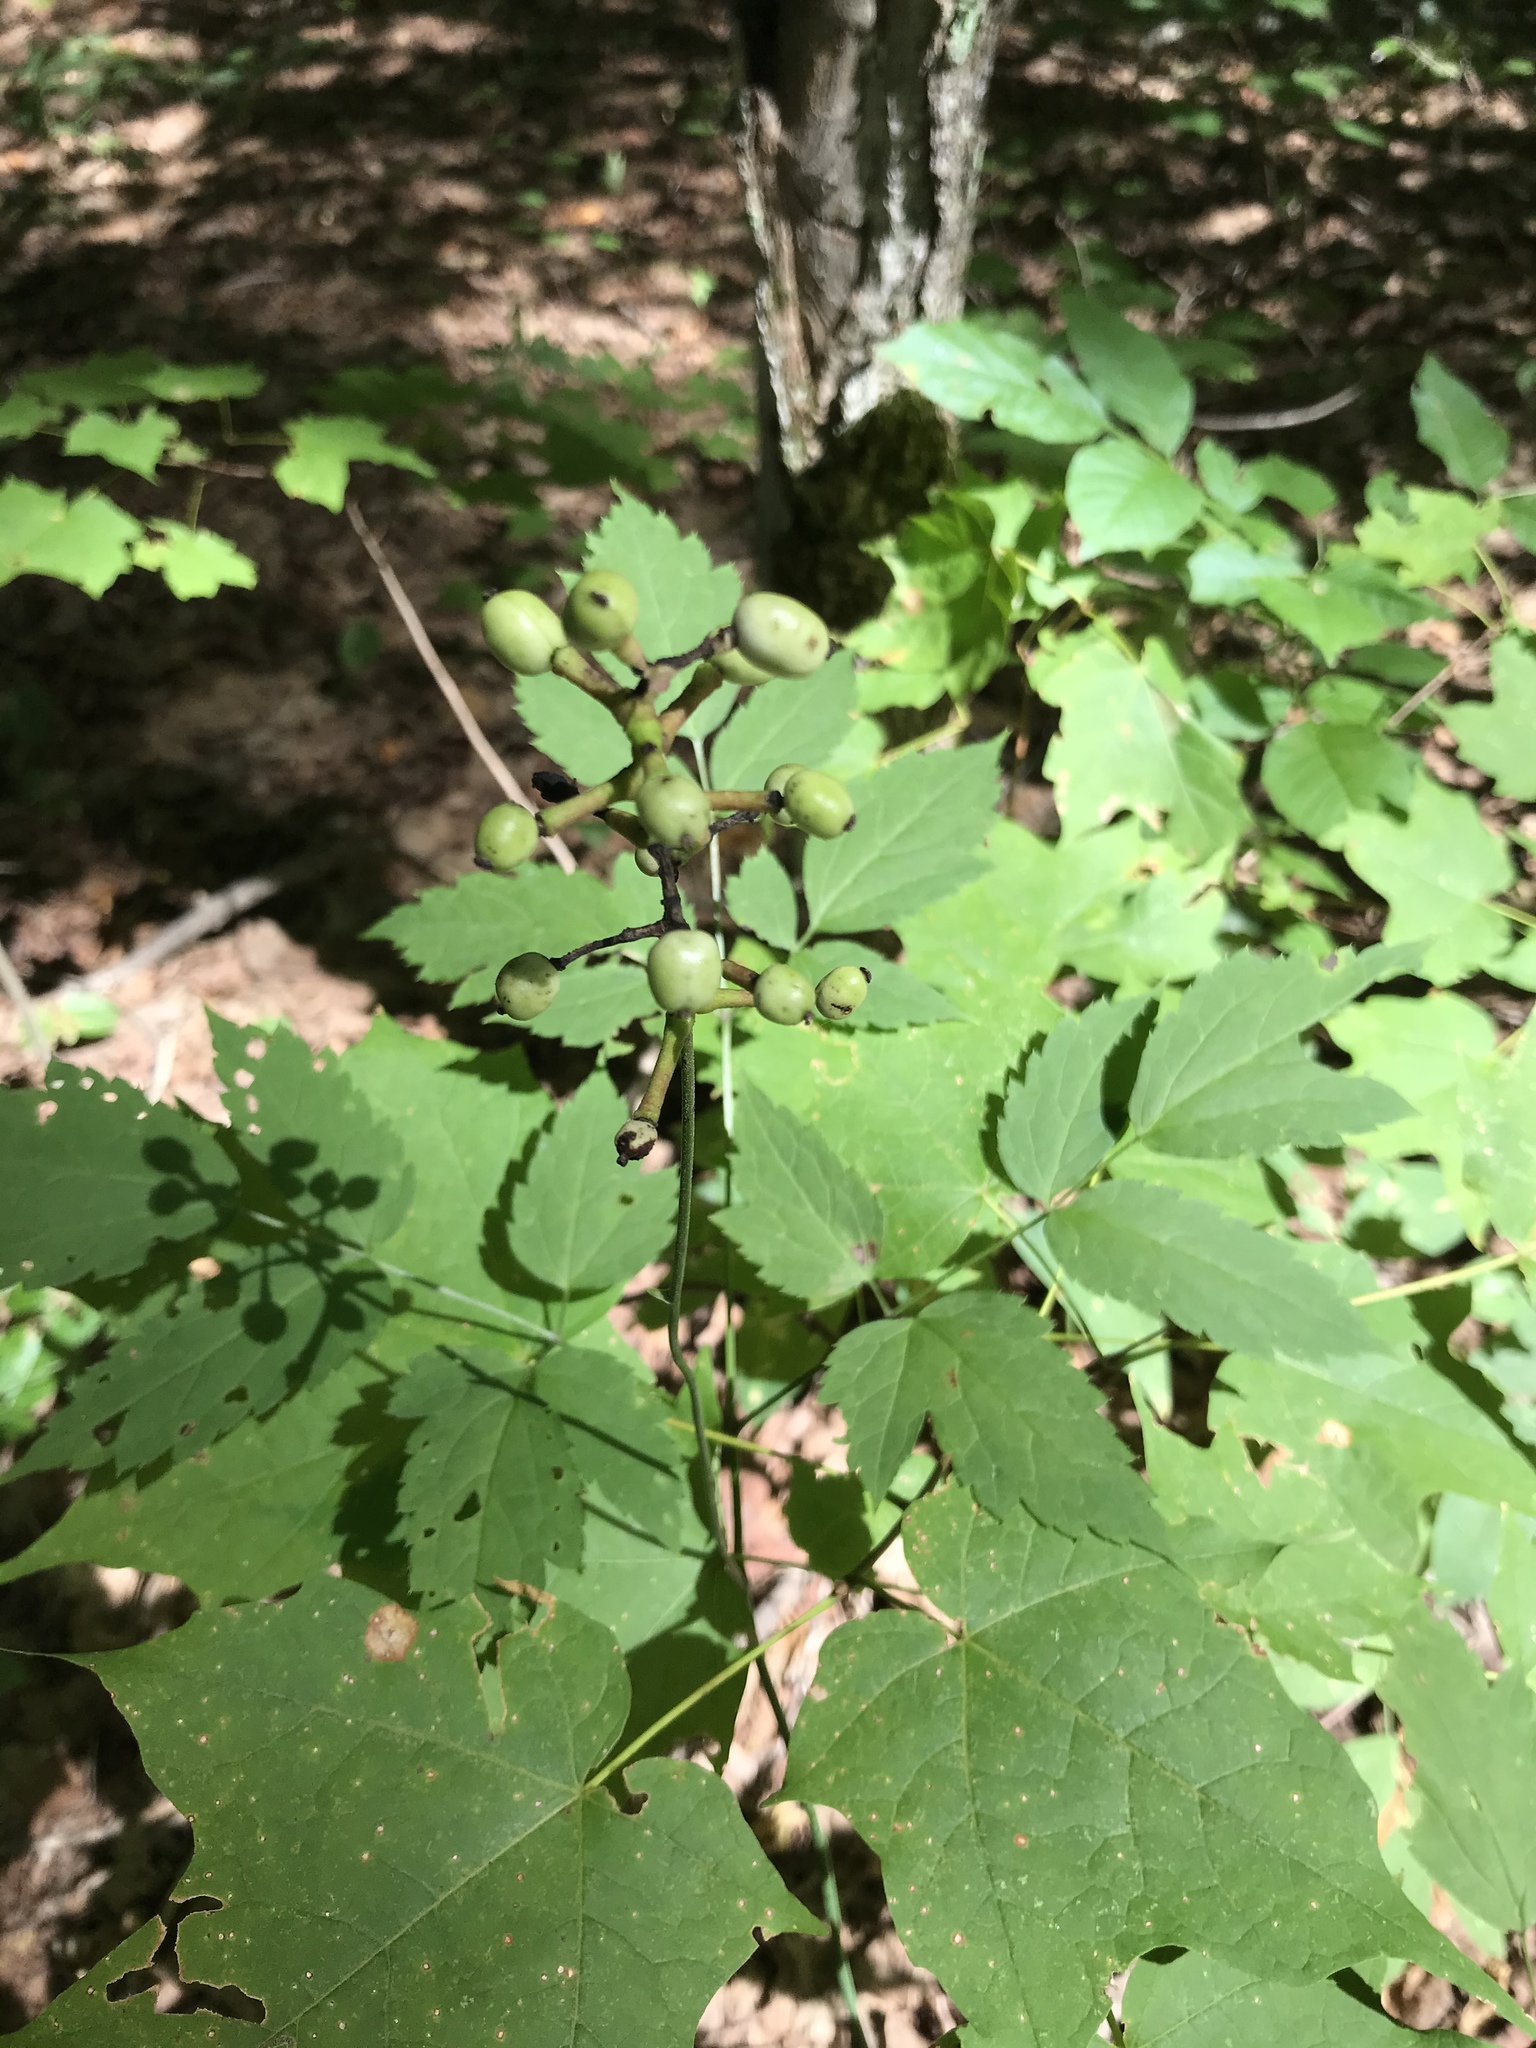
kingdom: Plantae
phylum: Tracheophyta
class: Magnoliopsida
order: Ranunculales
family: Ranunculaceae
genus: Actaea
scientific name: Actaea pachypoda
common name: Doll's-eyes
